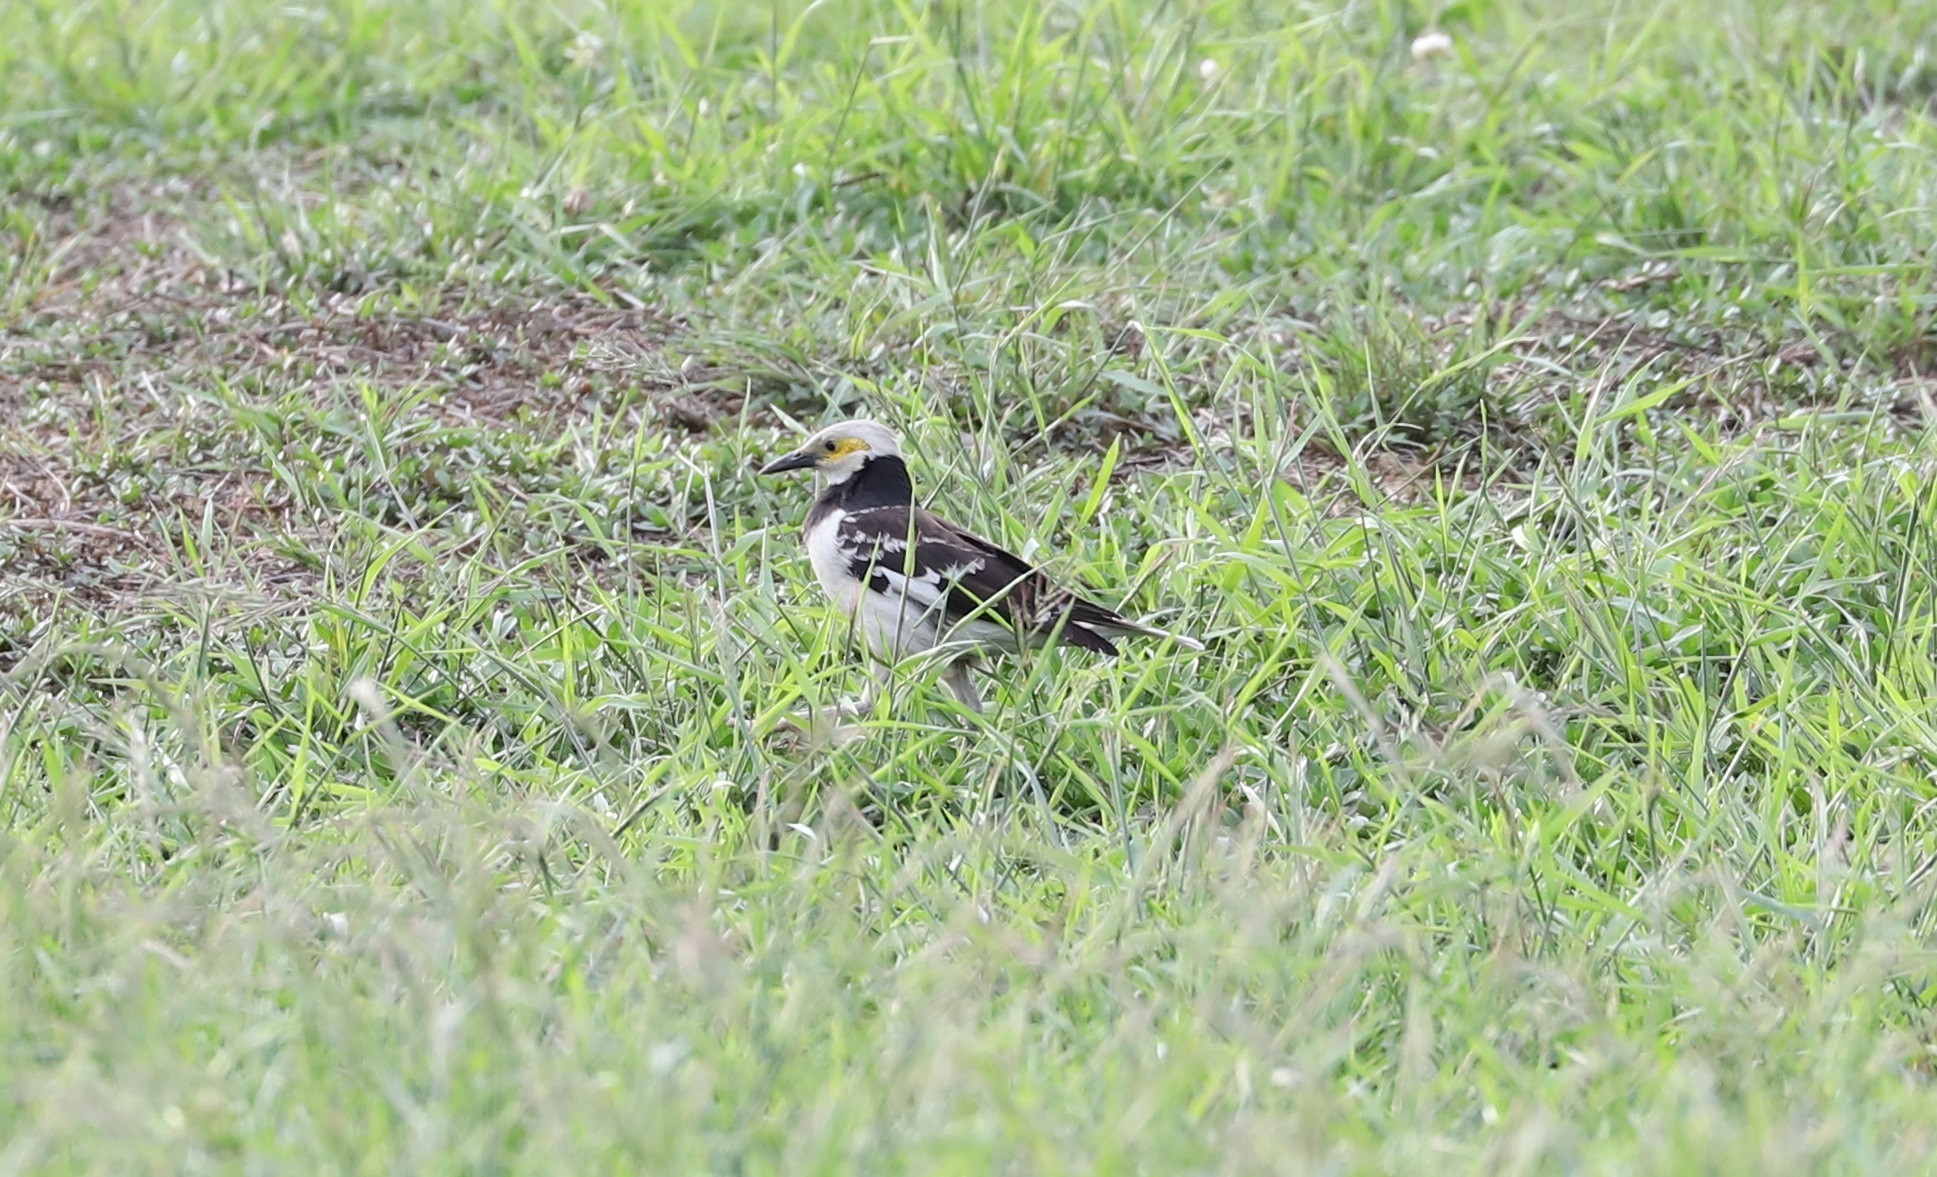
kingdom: Animalia
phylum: Chordata
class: Aves
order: Passeriformes
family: Sturnidae
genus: Gracupica
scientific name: Gracupica nigricollis
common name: Black-collared starling
